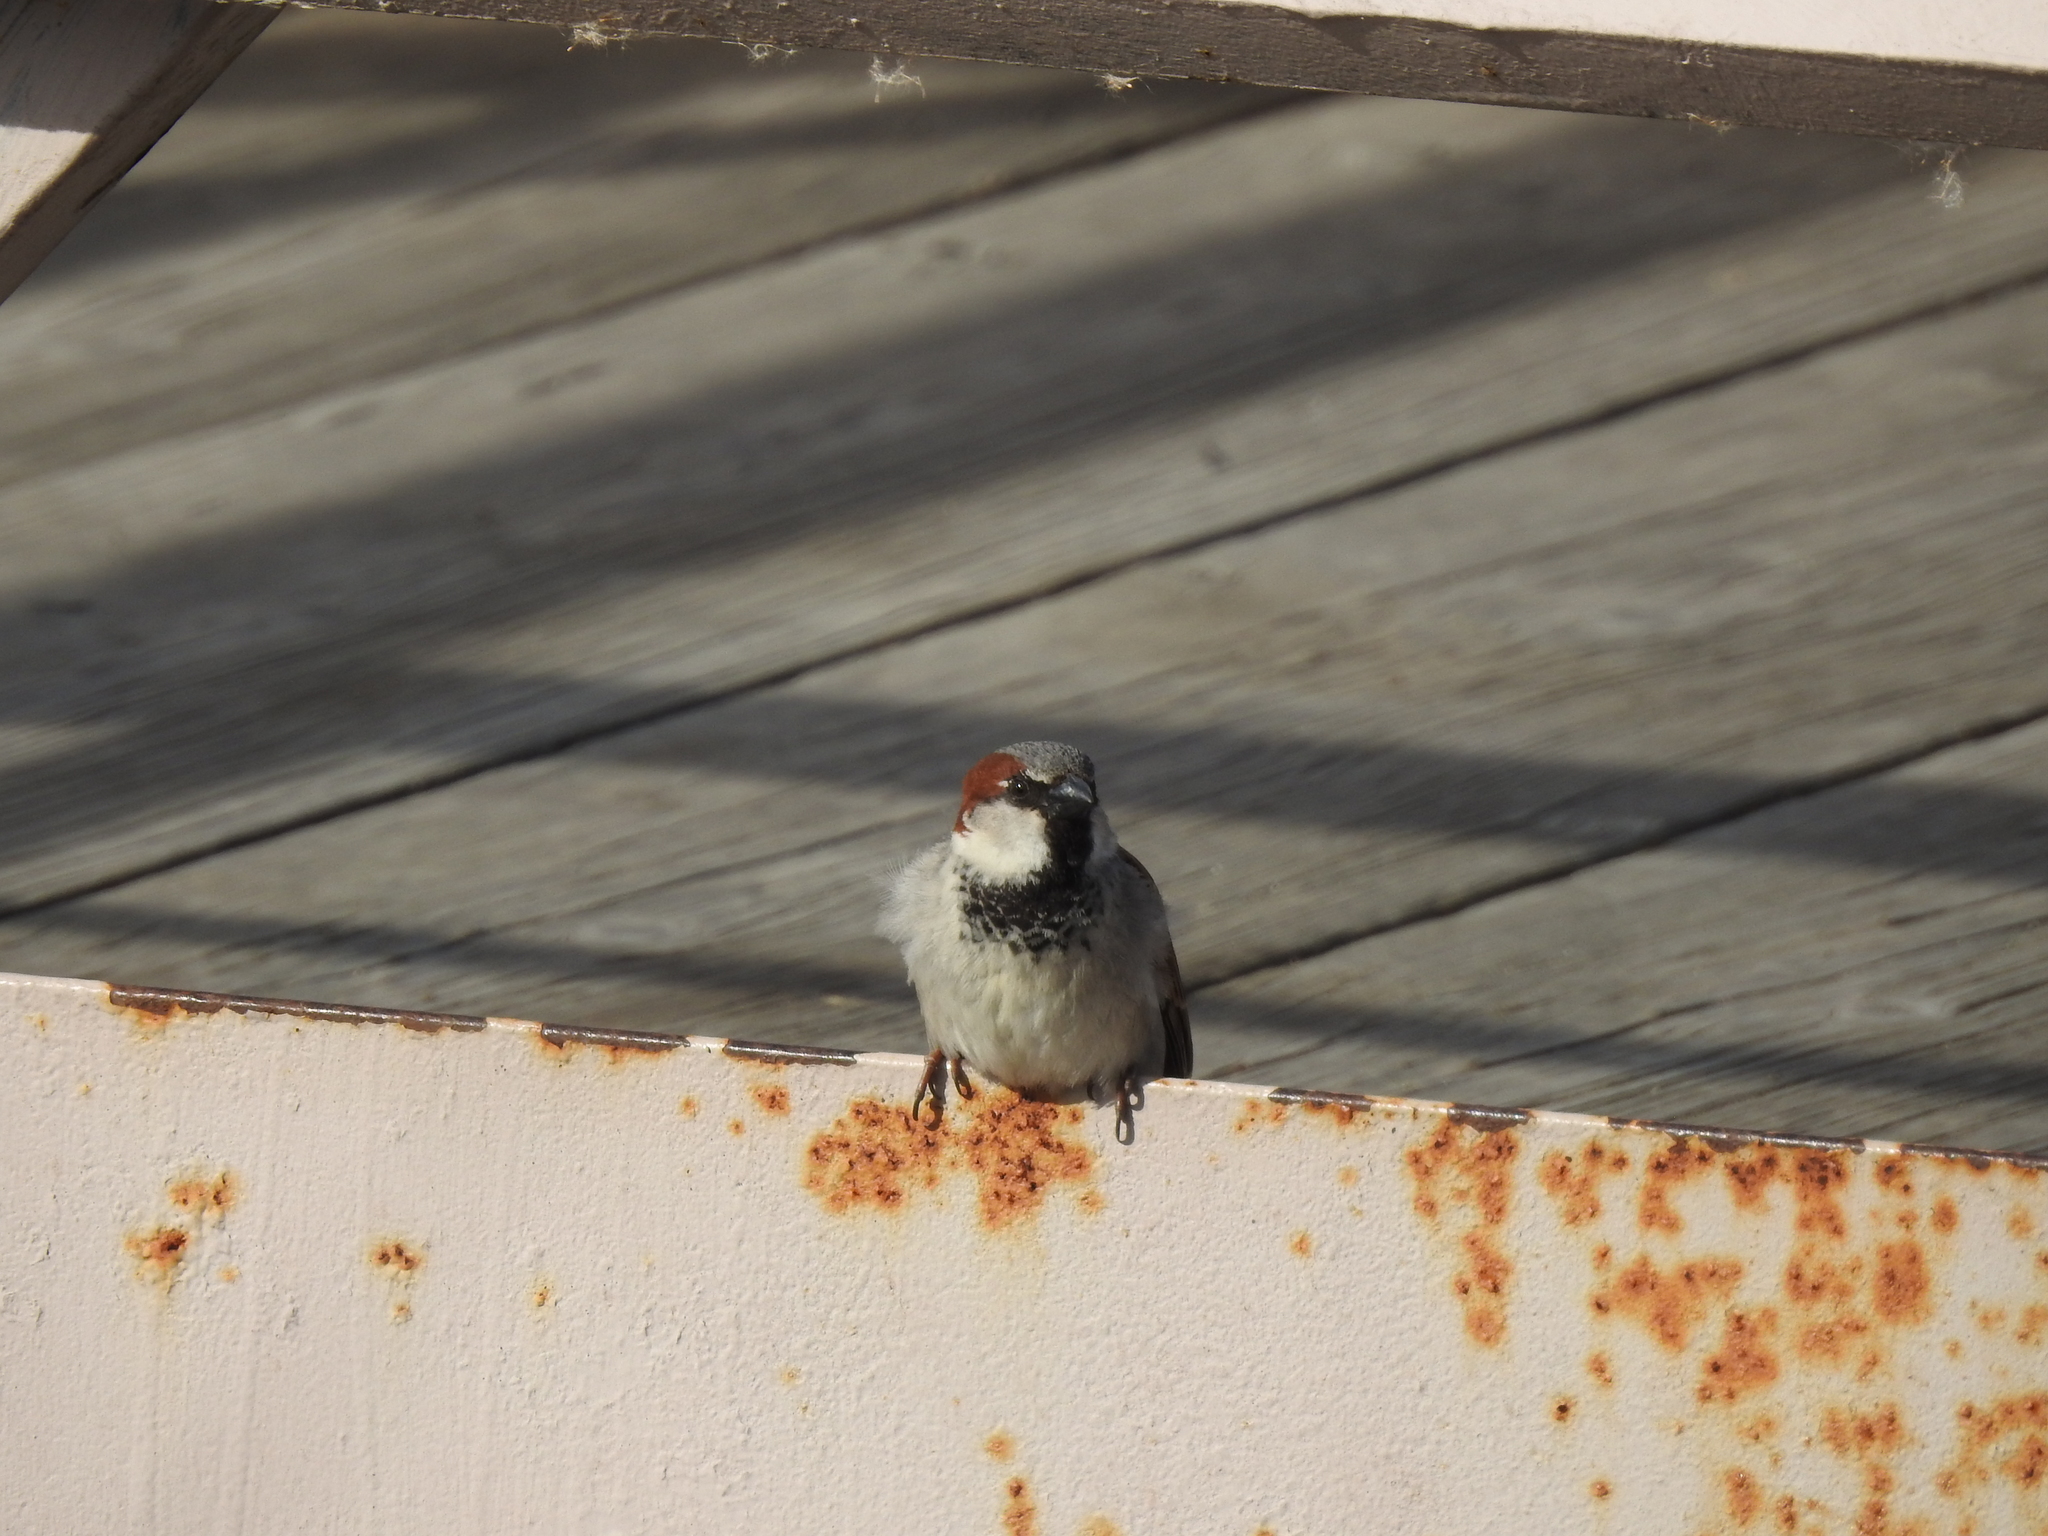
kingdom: Animalia
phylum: Chordata
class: Aves
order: Passeriformes
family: Passeridae
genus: Passer
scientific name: Passer domesticus
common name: House sparrow
